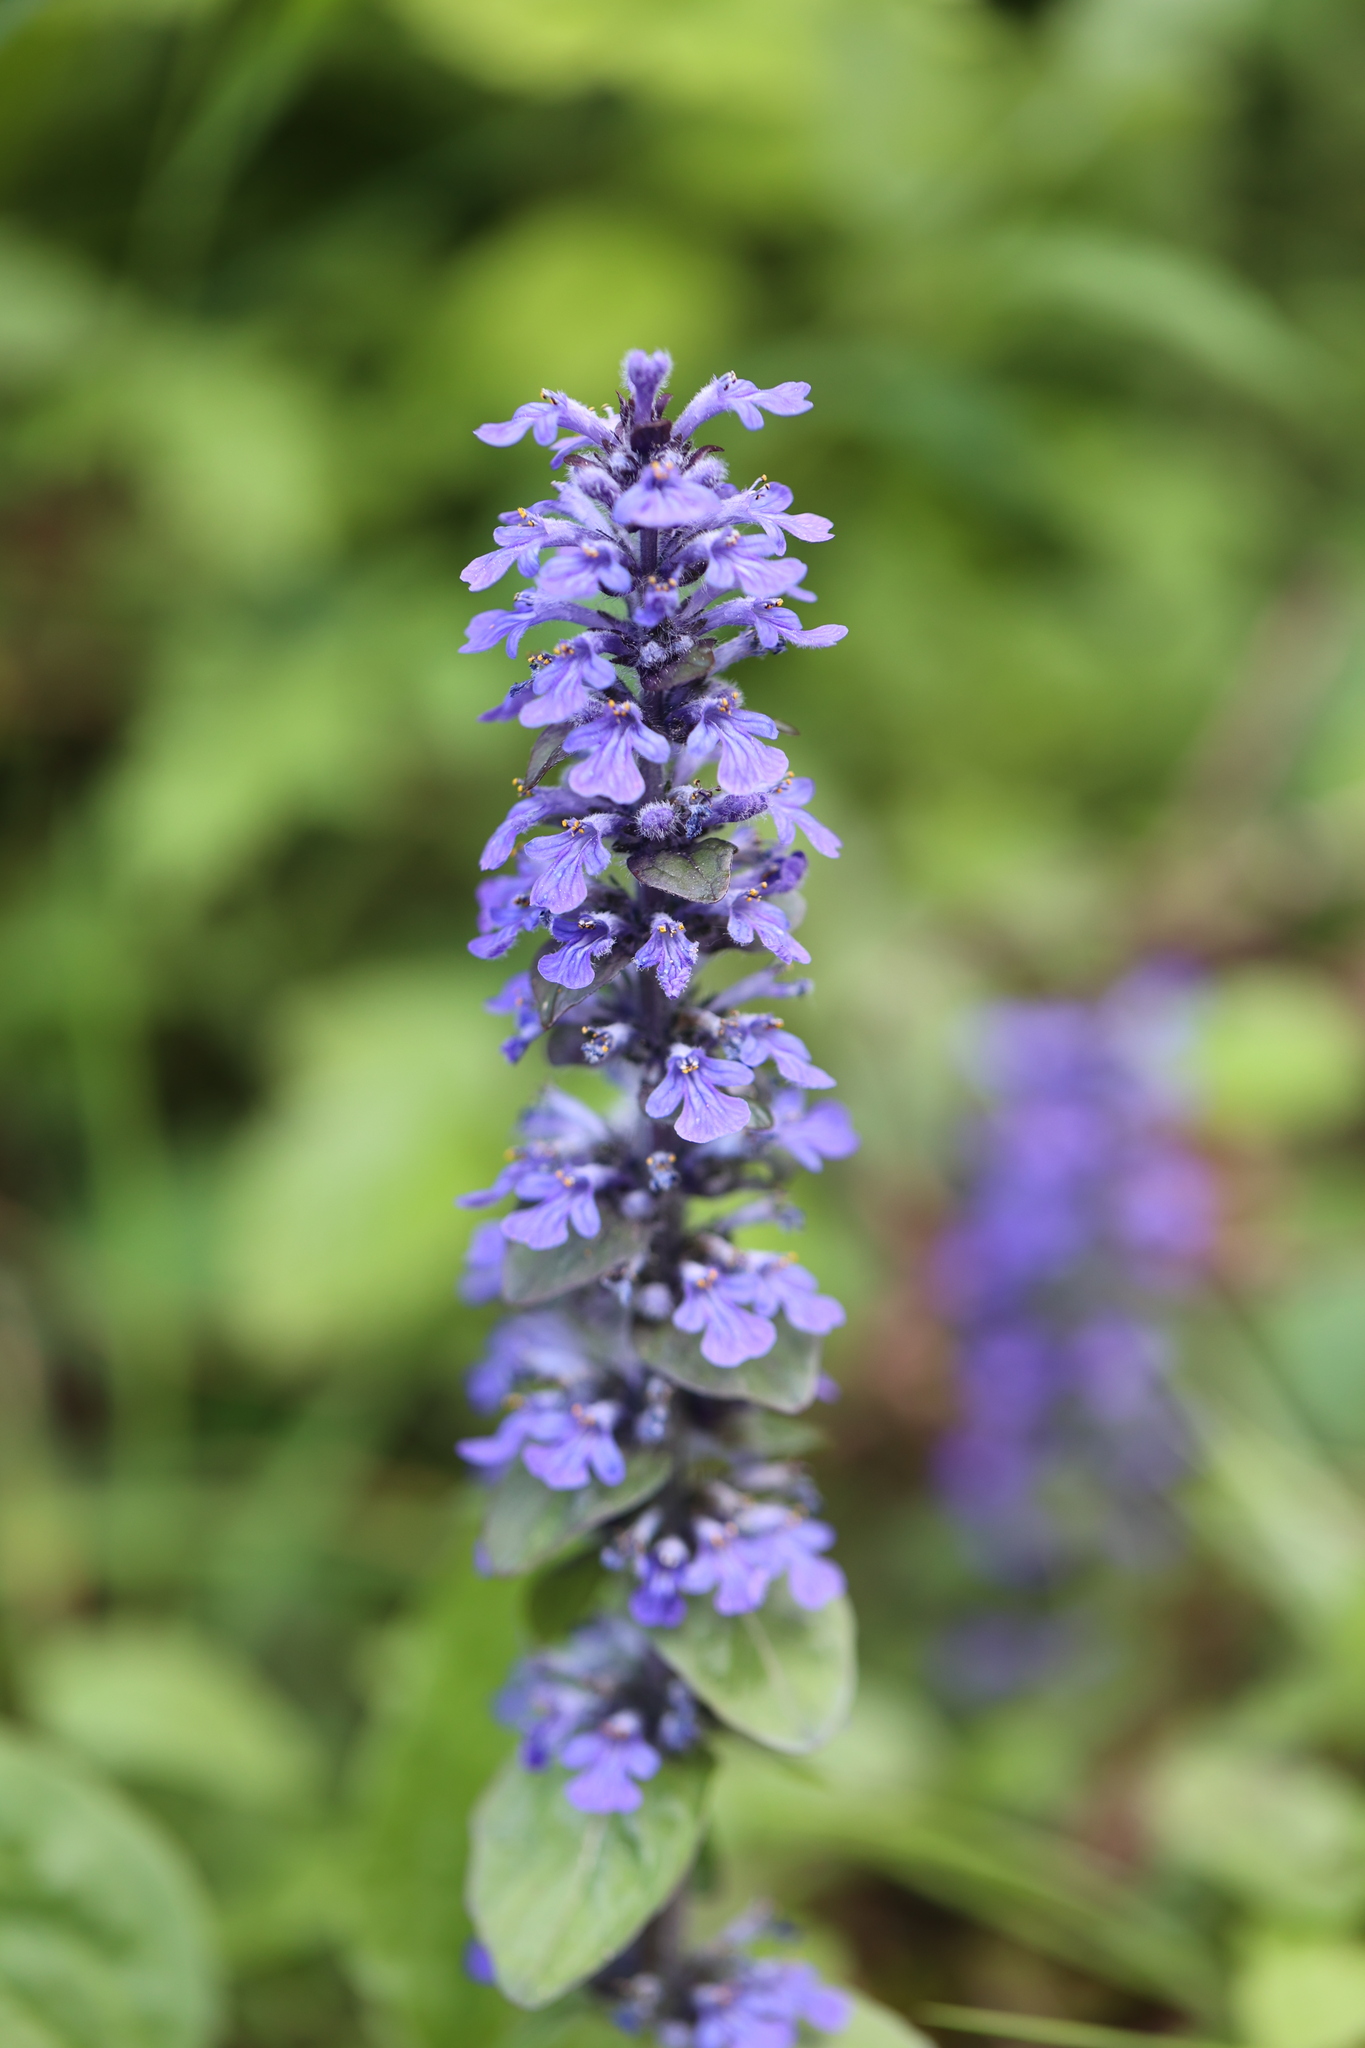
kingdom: Plantae
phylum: Tracheophyta
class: Magnoliopsida
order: Lamiales
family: Lamiaceae
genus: Ajuga
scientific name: Ajuga reptans
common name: Bugle
